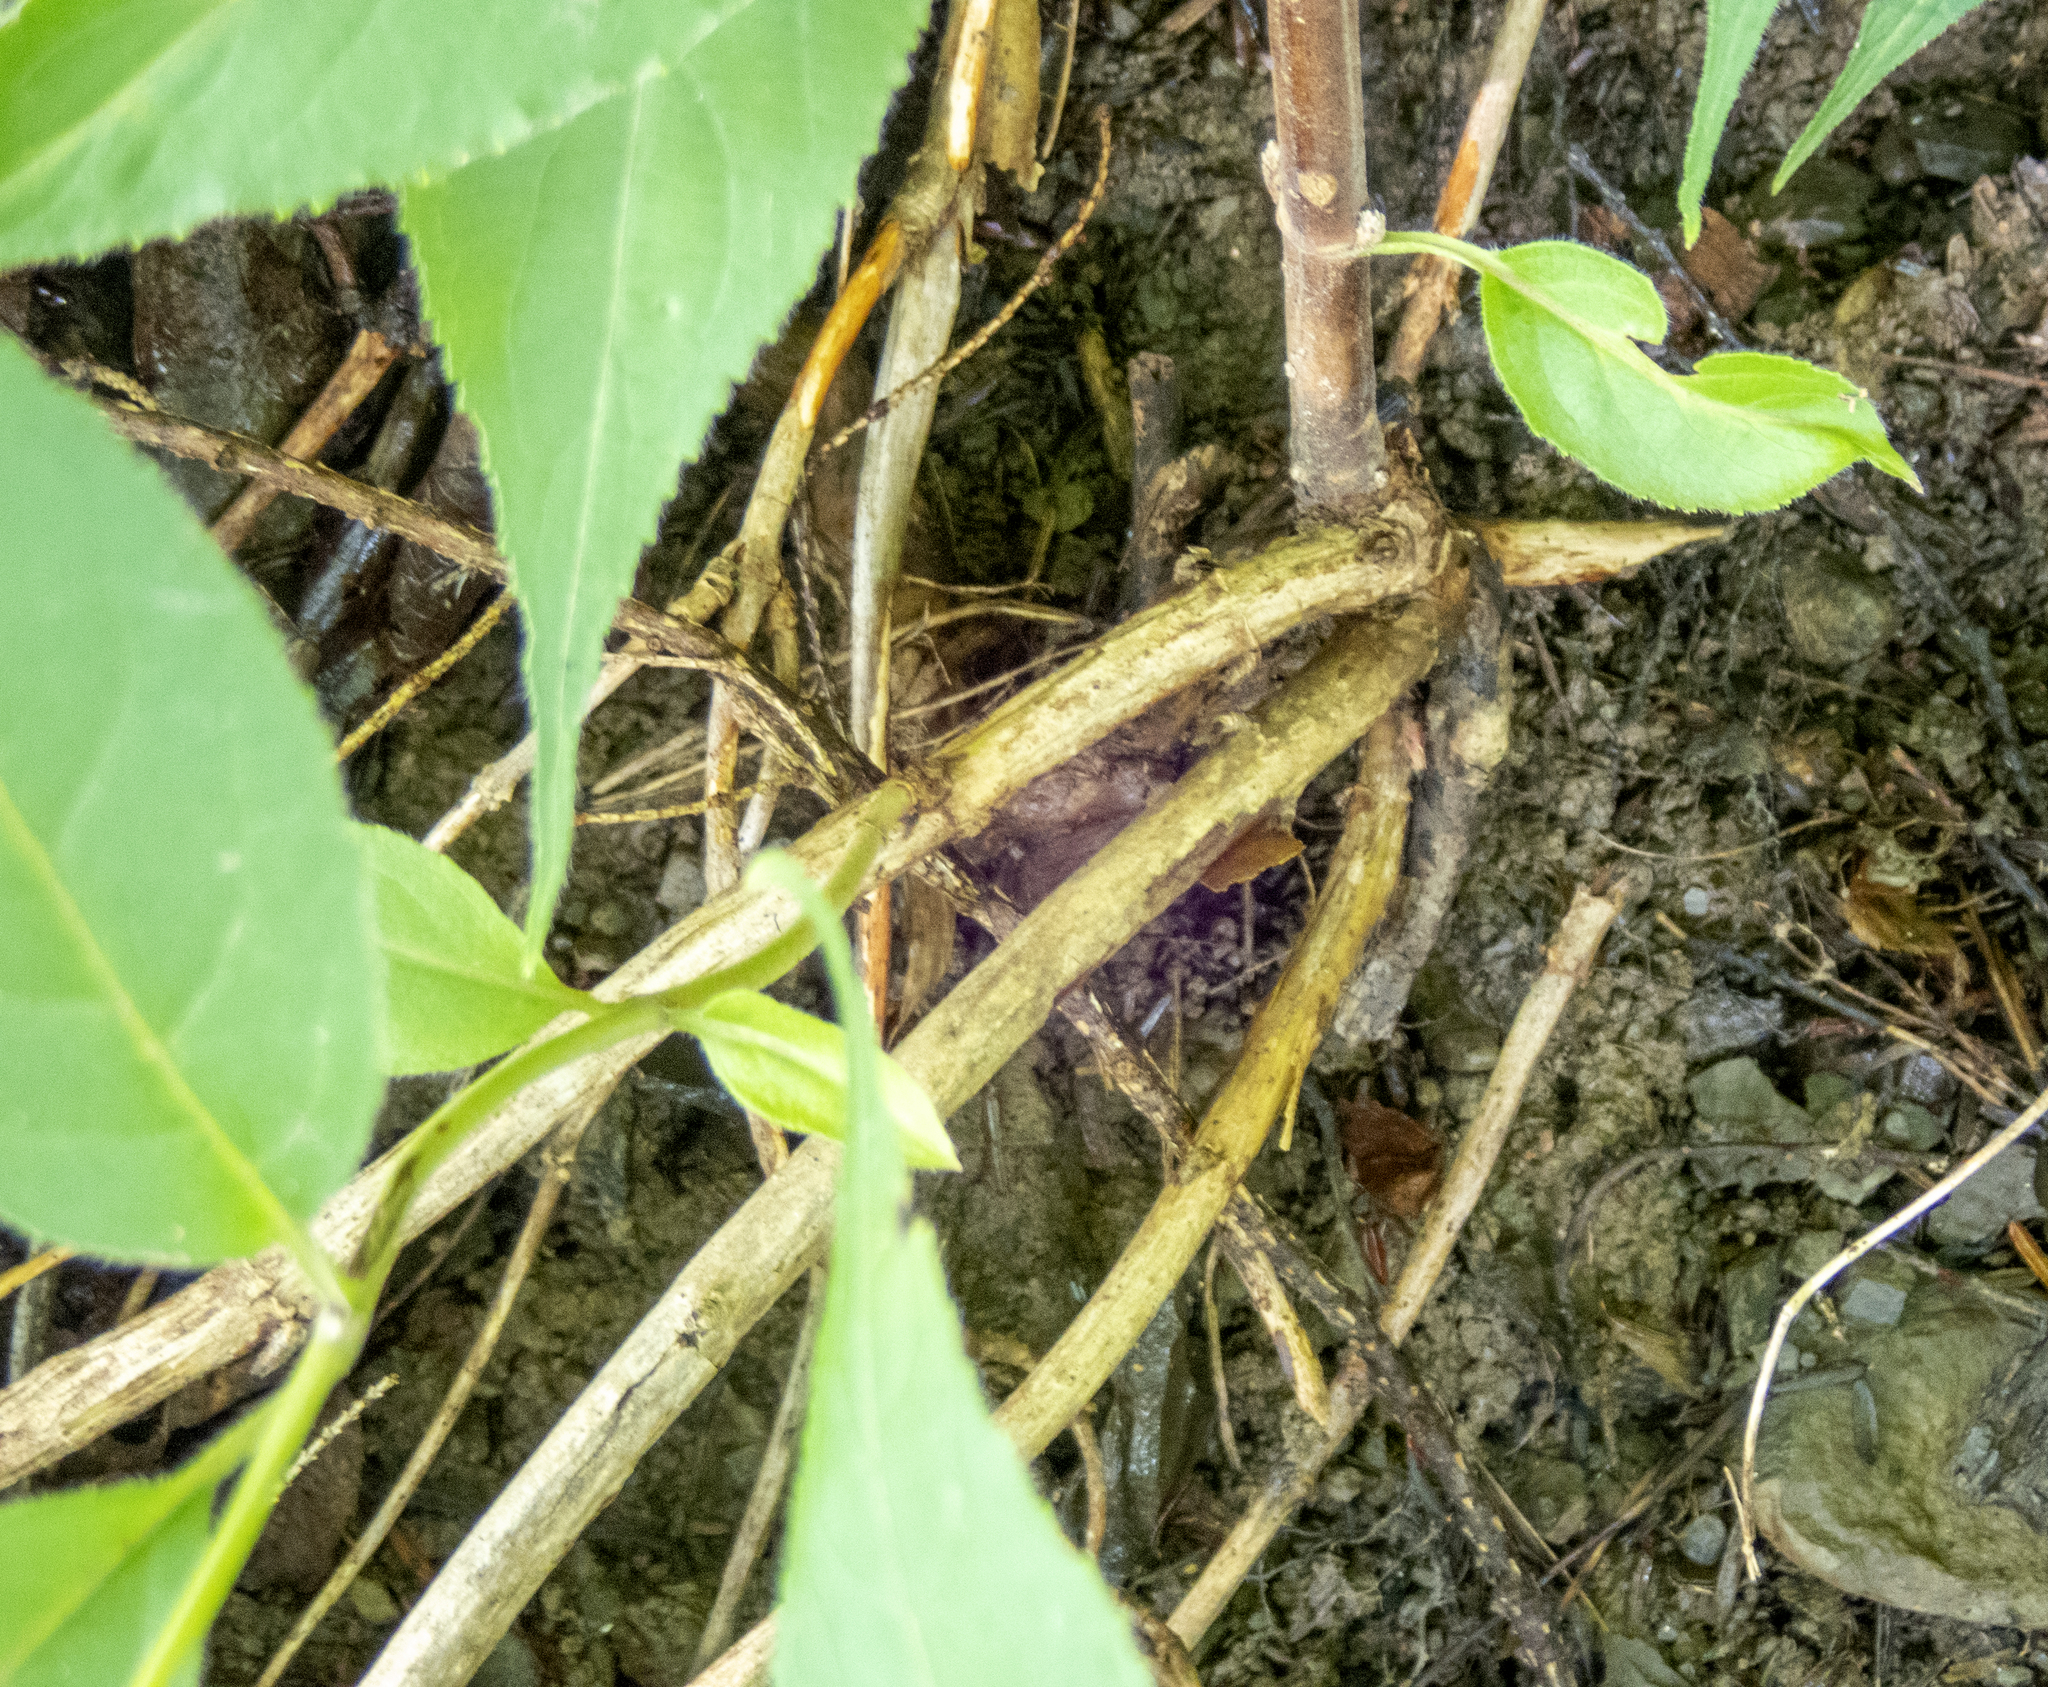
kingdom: Plantae
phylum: Tracheophyta
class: Magnoliopsida
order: Dipsacales
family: Caprifoliaceae
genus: Diervilla
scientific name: Diervilla lonicera
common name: Bush-honeysuckle
